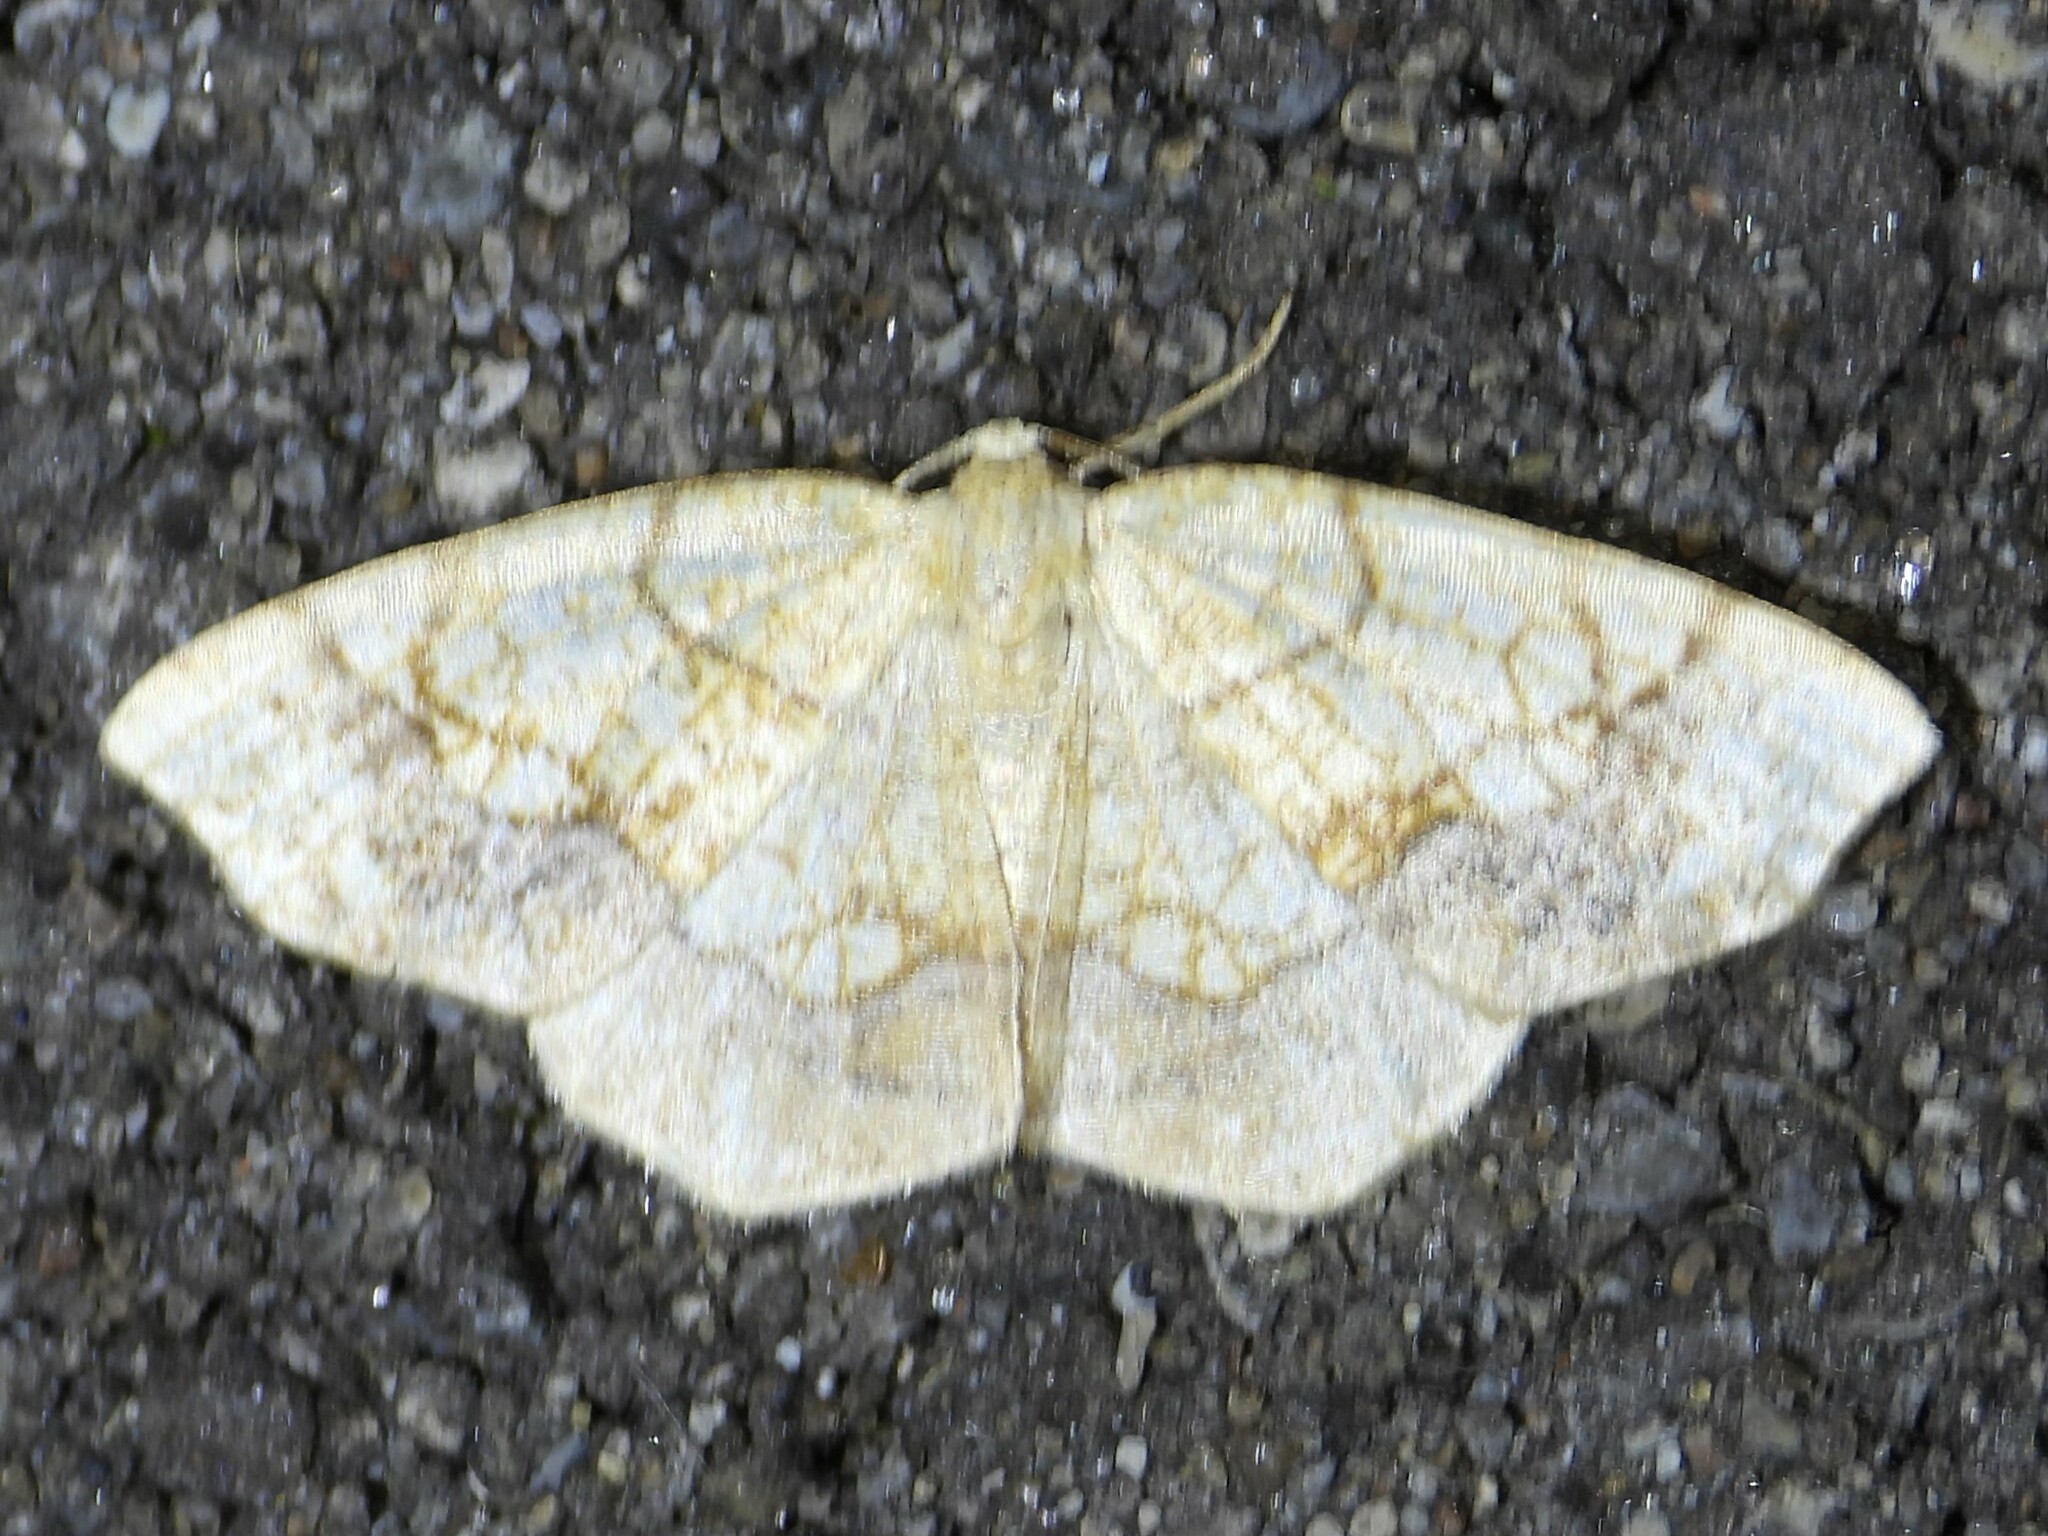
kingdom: Animalia
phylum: Arthropoda
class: Insecta
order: Lepidoptera
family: Geometridae
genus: Nematocampa
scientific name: Nematocampa resistaria
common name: Horned spanworm moth
